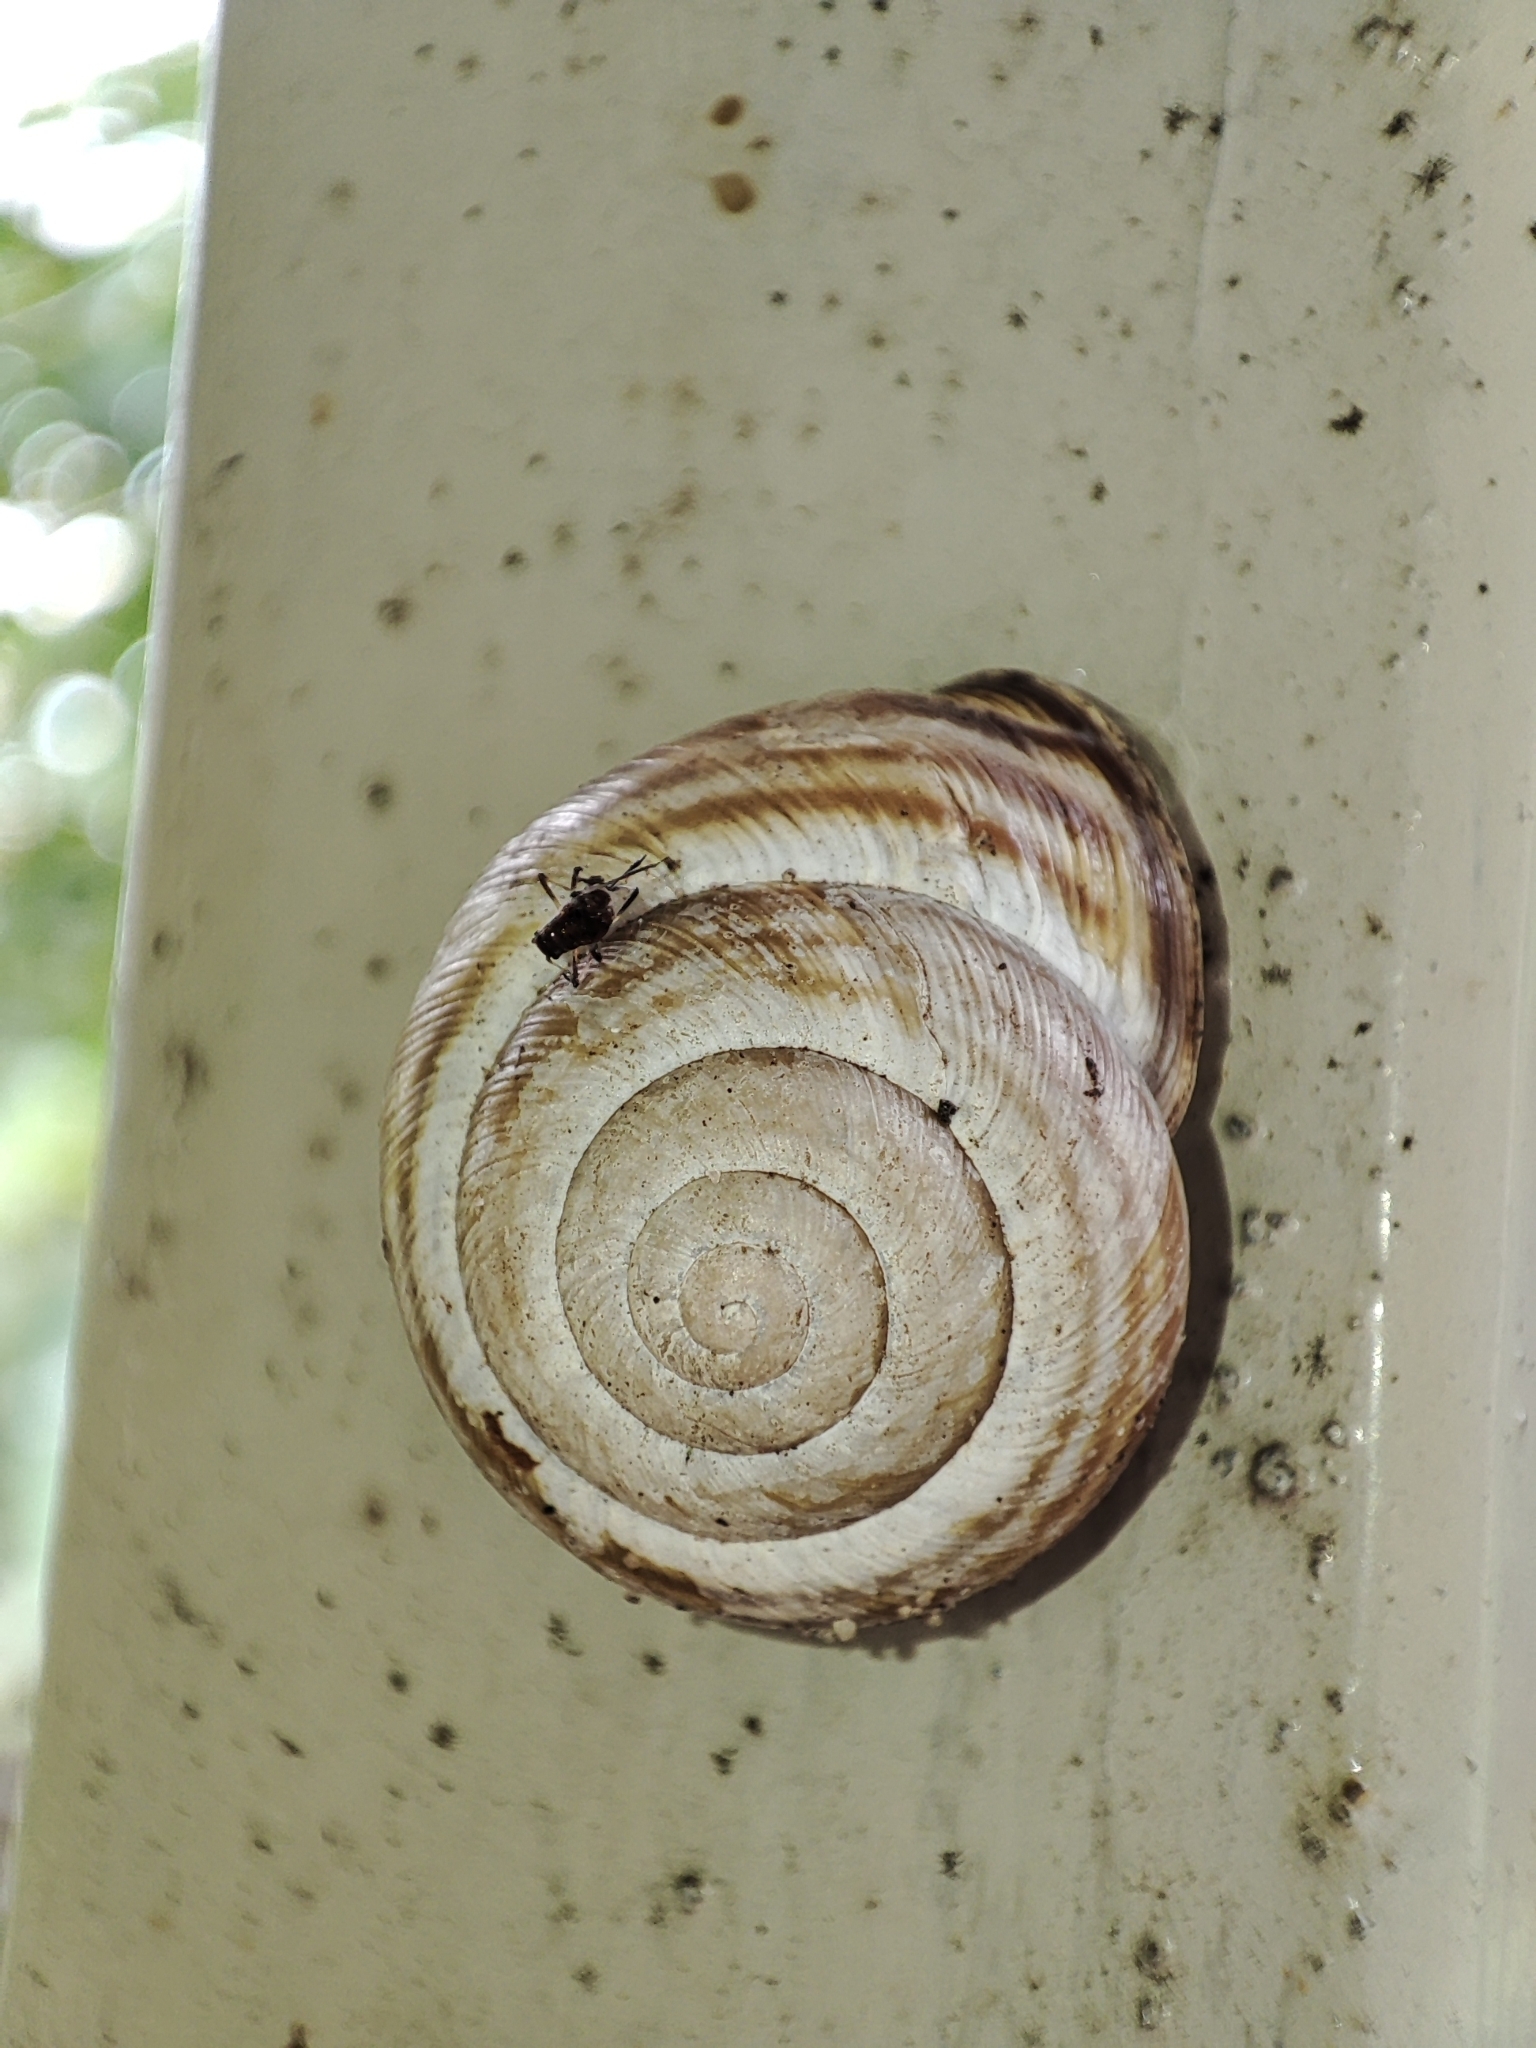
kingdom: Animalia
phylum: Mollusca
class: Gastropoda
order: Stylommatophora
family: Helicidae
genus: Caucasotachea
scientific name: Caucasotachea vindobonensis
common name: European helicid land snail
